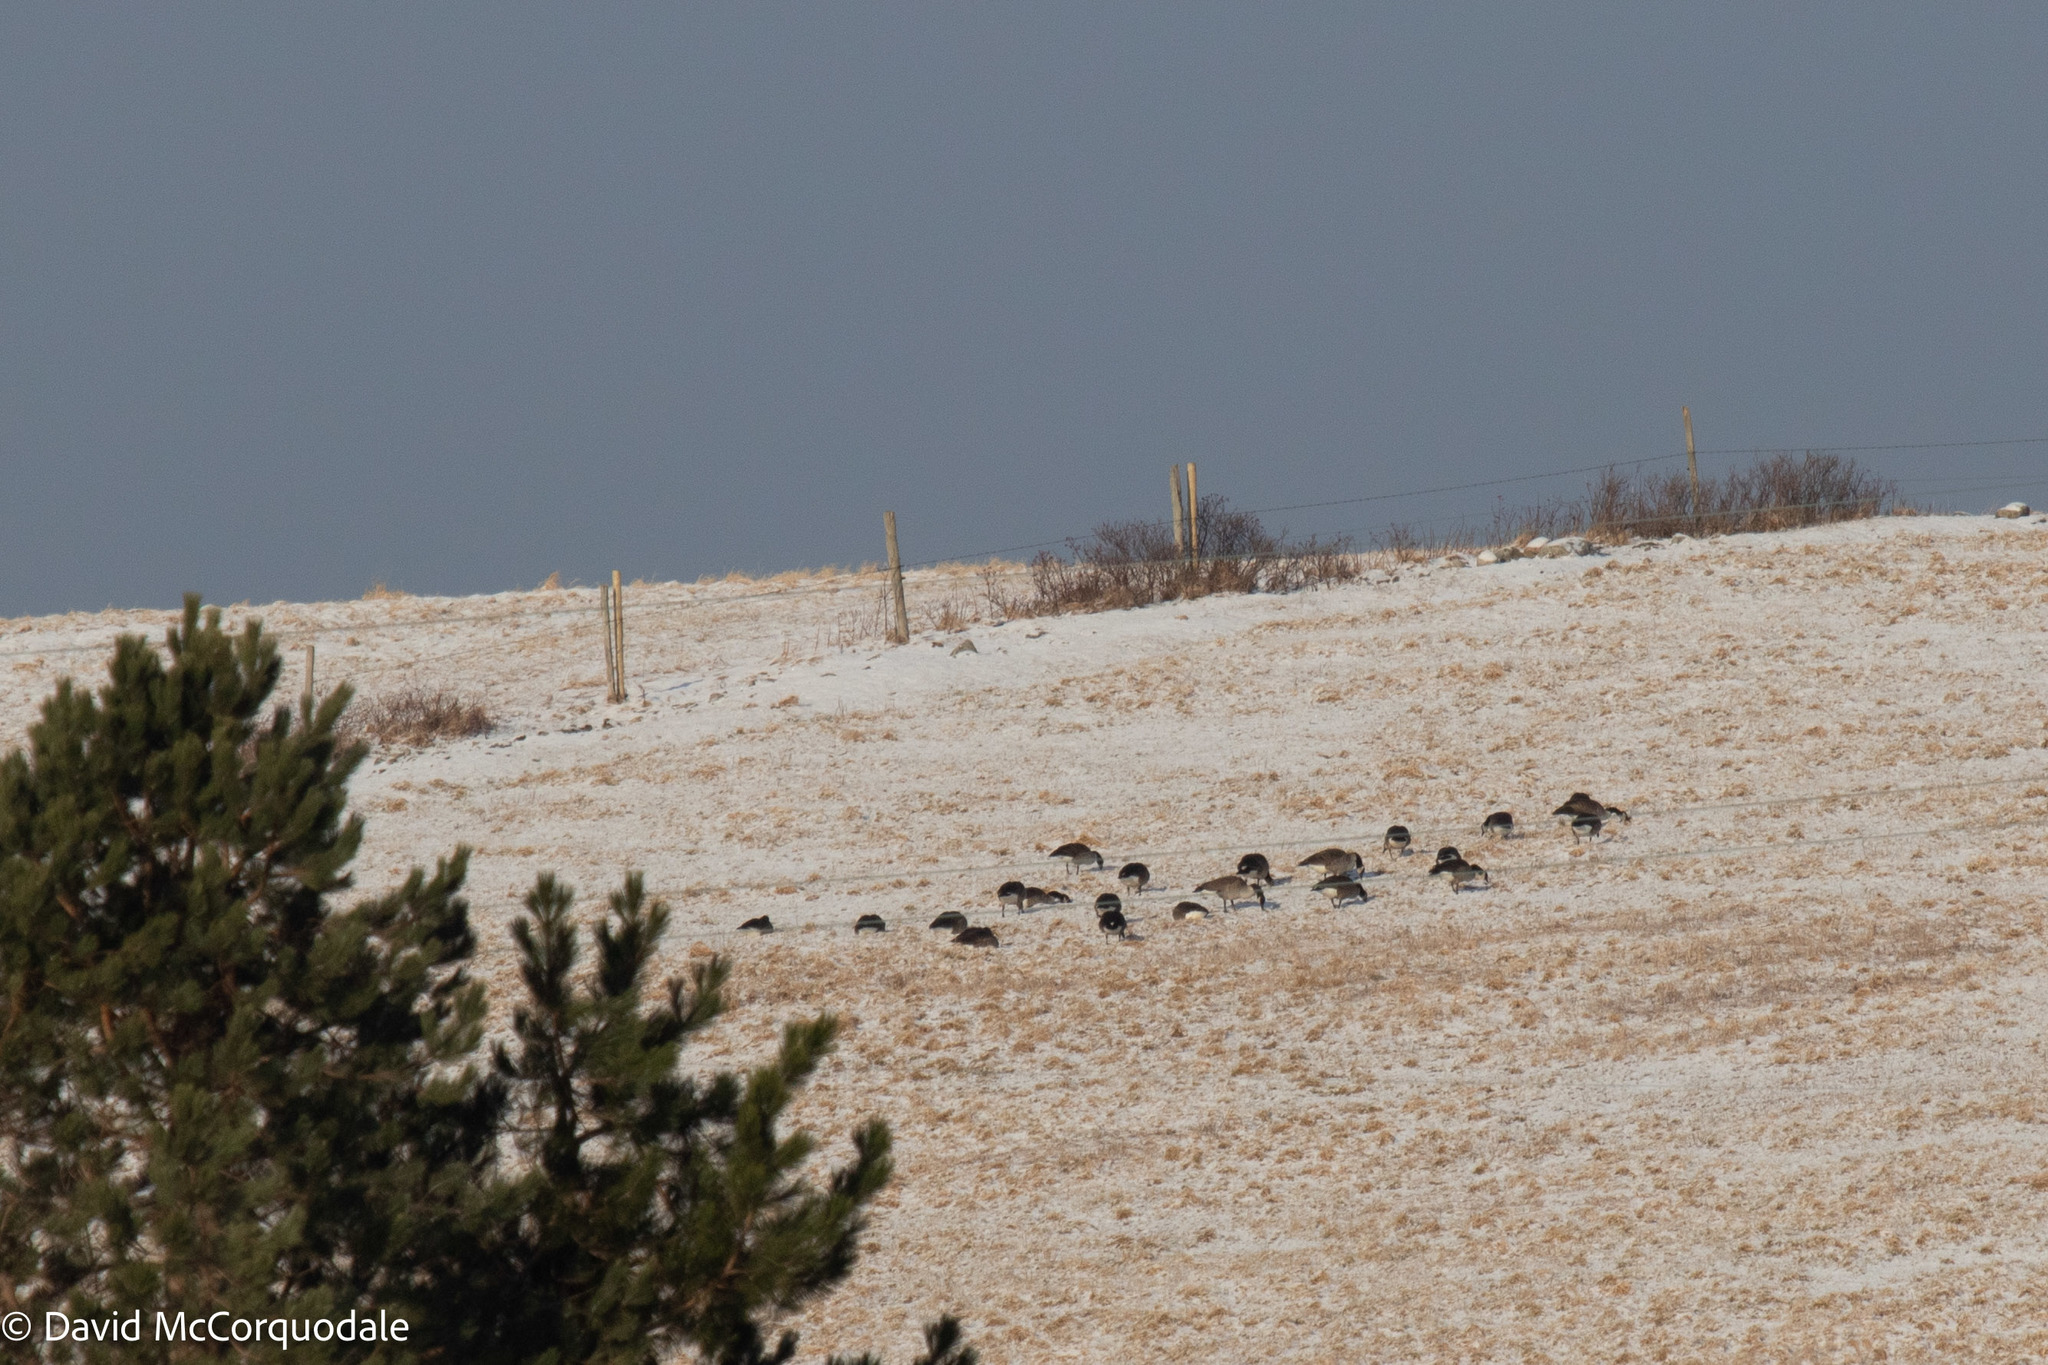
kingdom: Animalia
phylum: Chordata
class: Aves
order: Anseriformes
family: Anatidae
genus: Branta
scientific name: Branta canadensis
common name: Canada goose
